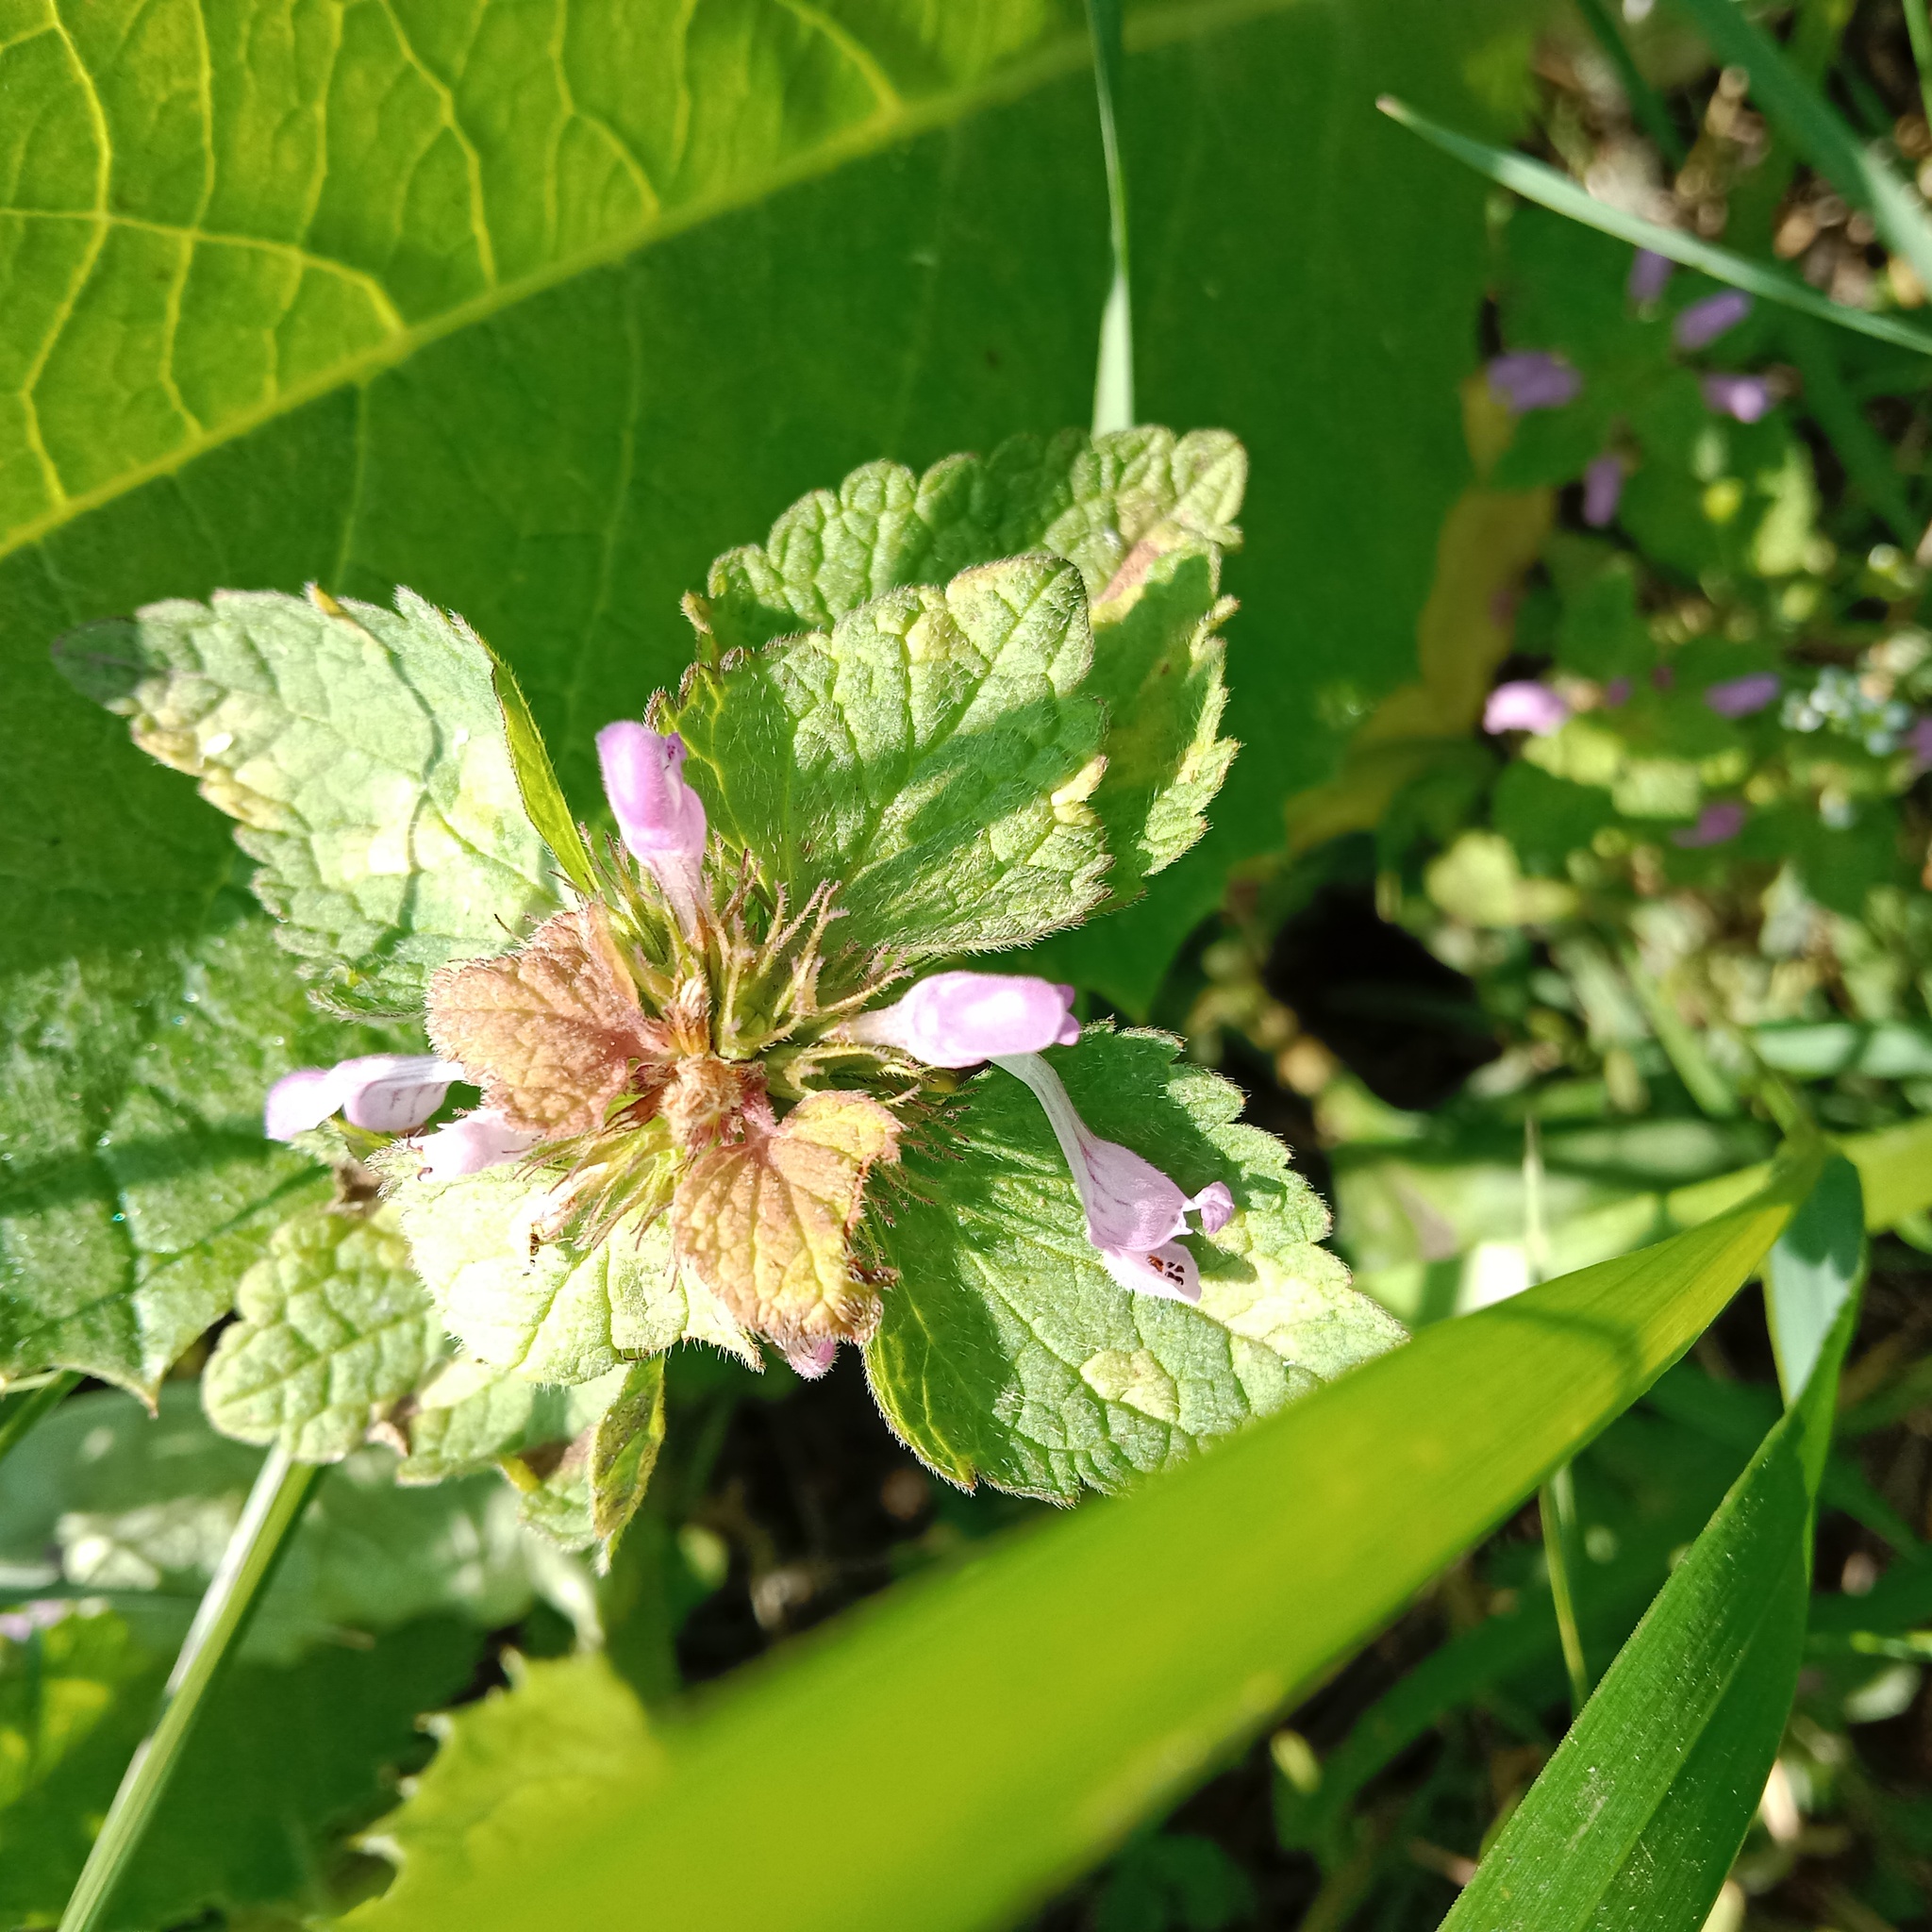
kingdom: Plantae
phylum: Tracheophyta
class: Magnoliopsida
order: Lamiales
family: Lamiaceae
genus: Lamium
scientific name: Lamium purpureum
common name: Red dead-nettle
